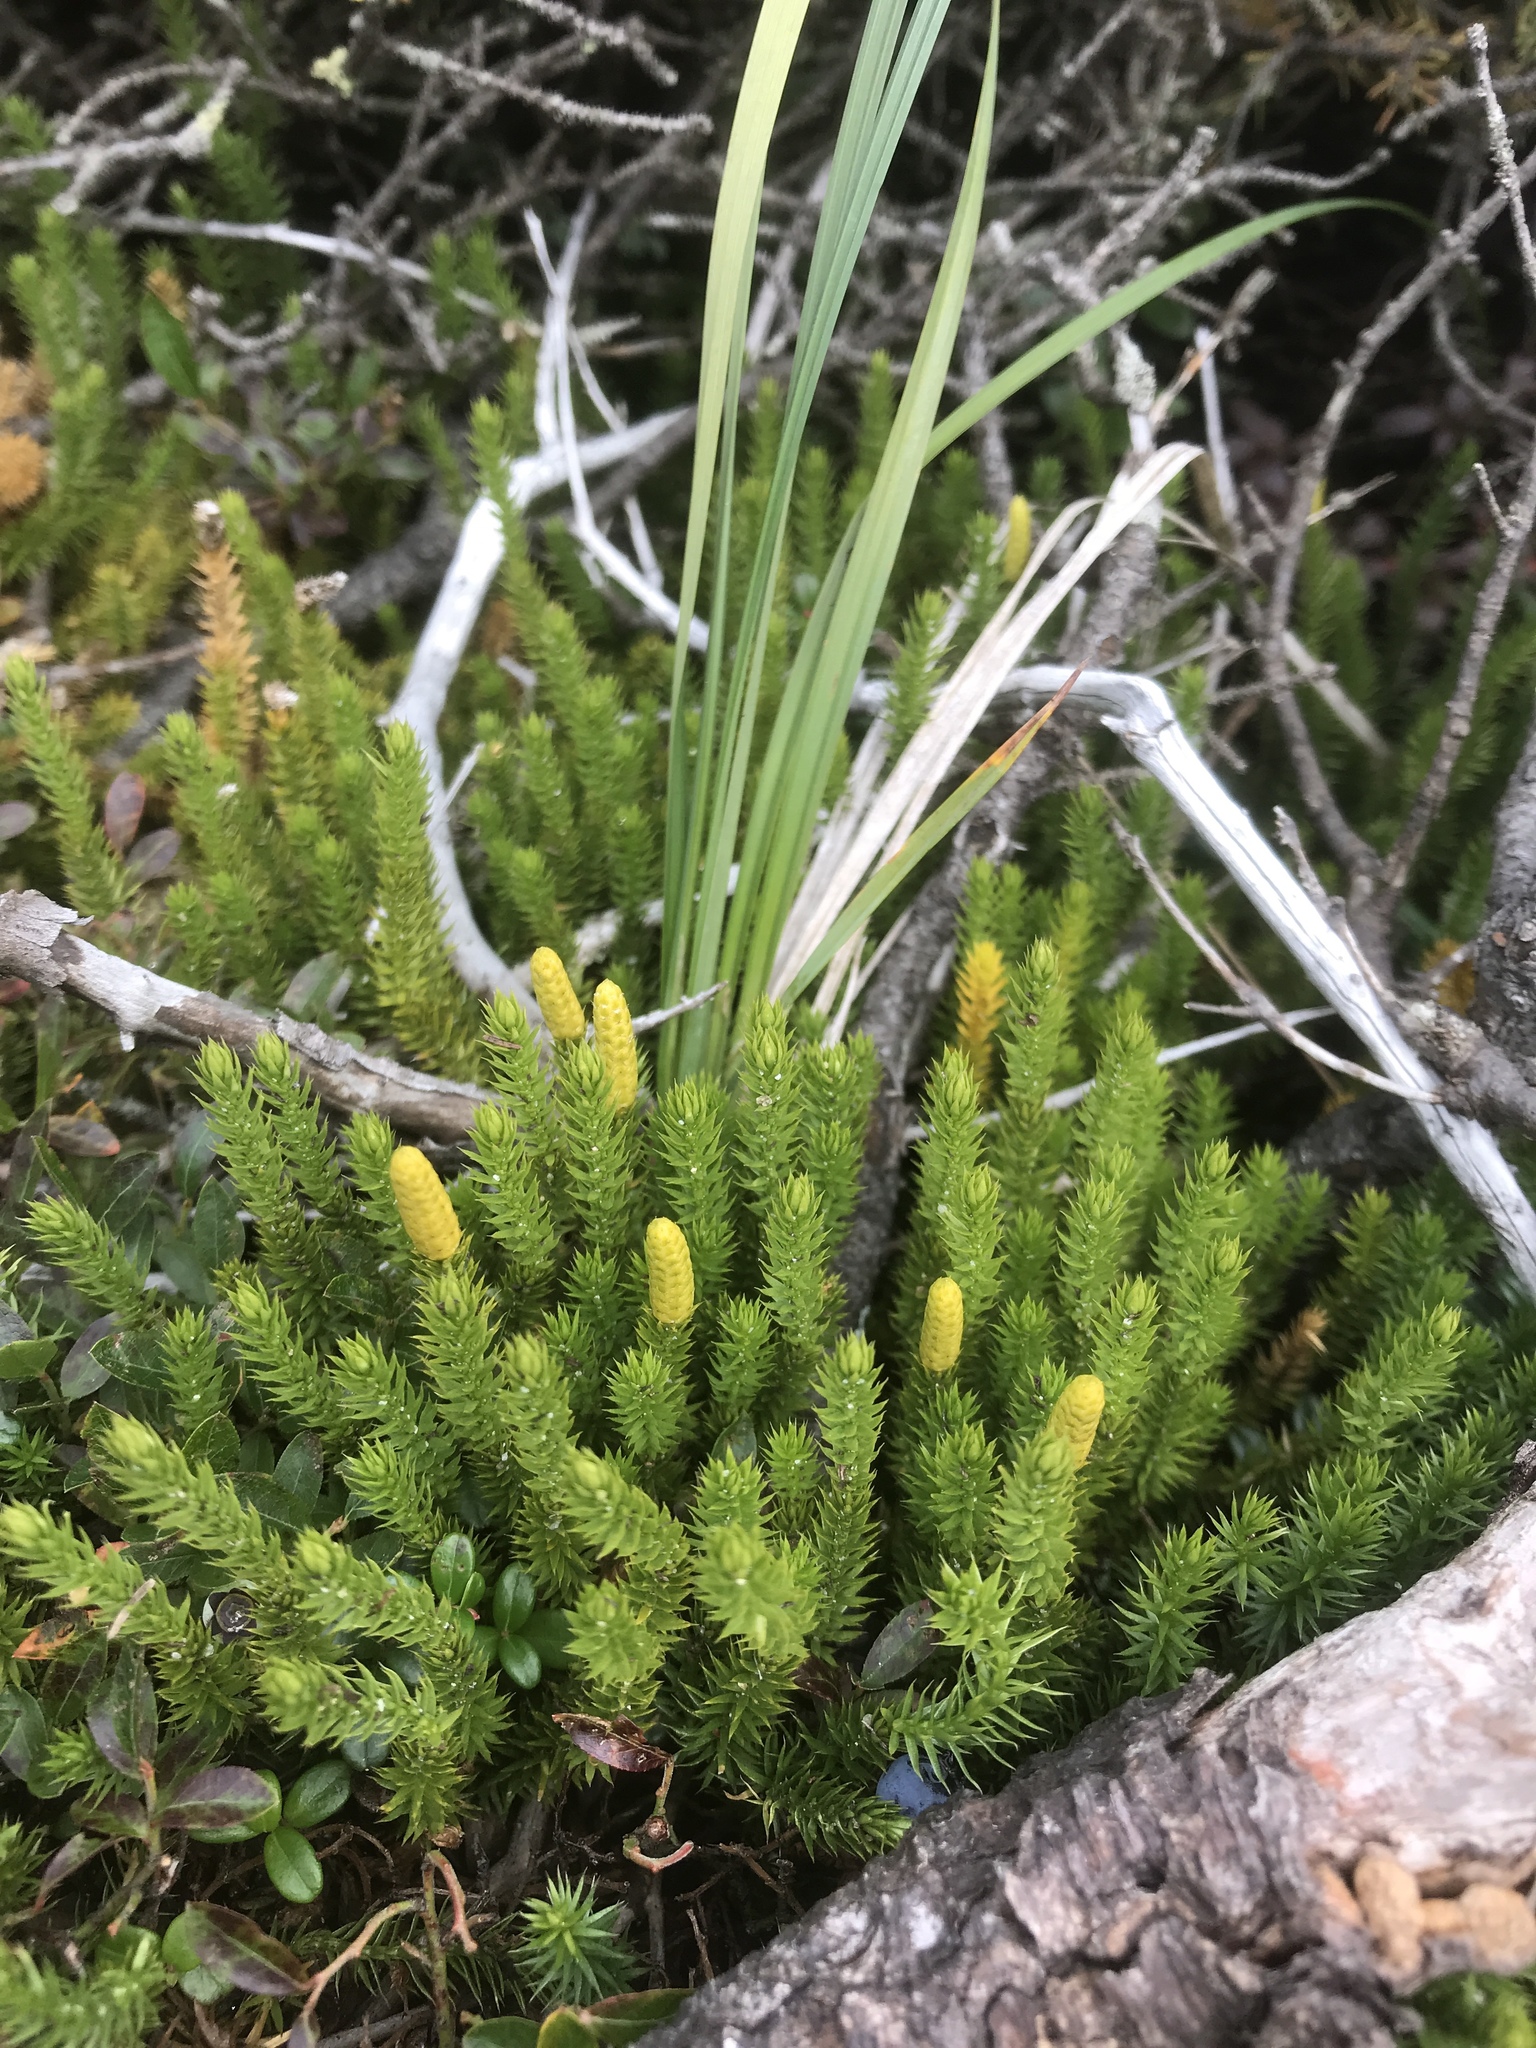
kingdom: Plantae
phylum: Tracheophyta
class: Lycopodiopsida
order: Lycopodiales
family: Lycopodiaceae
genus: Spinulum
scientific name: Spinulum annotinum
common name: Interrupted club-moss
